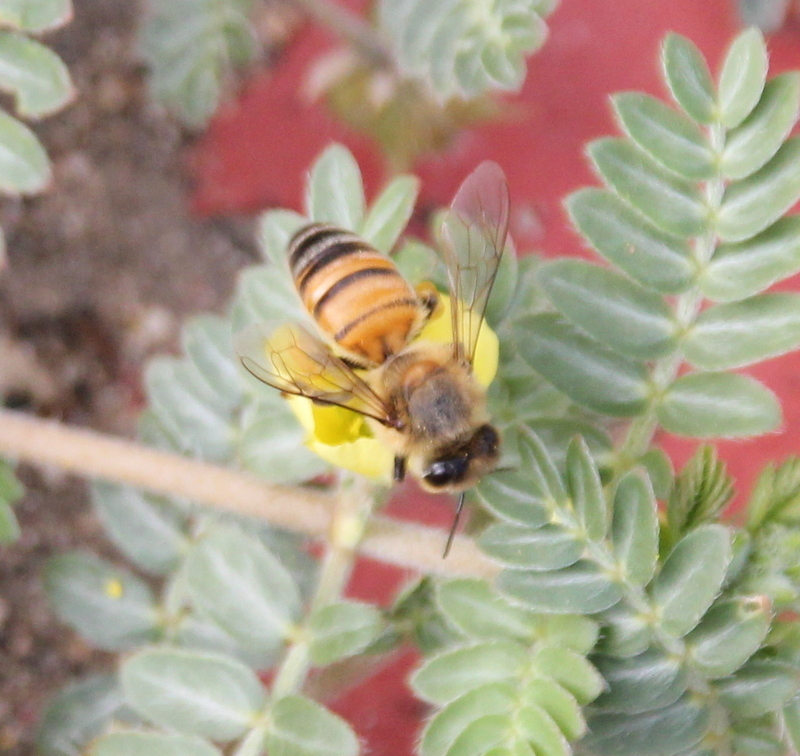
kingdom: Animalia
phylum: Arthropoda
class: Insecta
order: Hymenoptera
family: Apidae
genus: Apis
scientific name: Apis mellifera
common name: Honey bee
